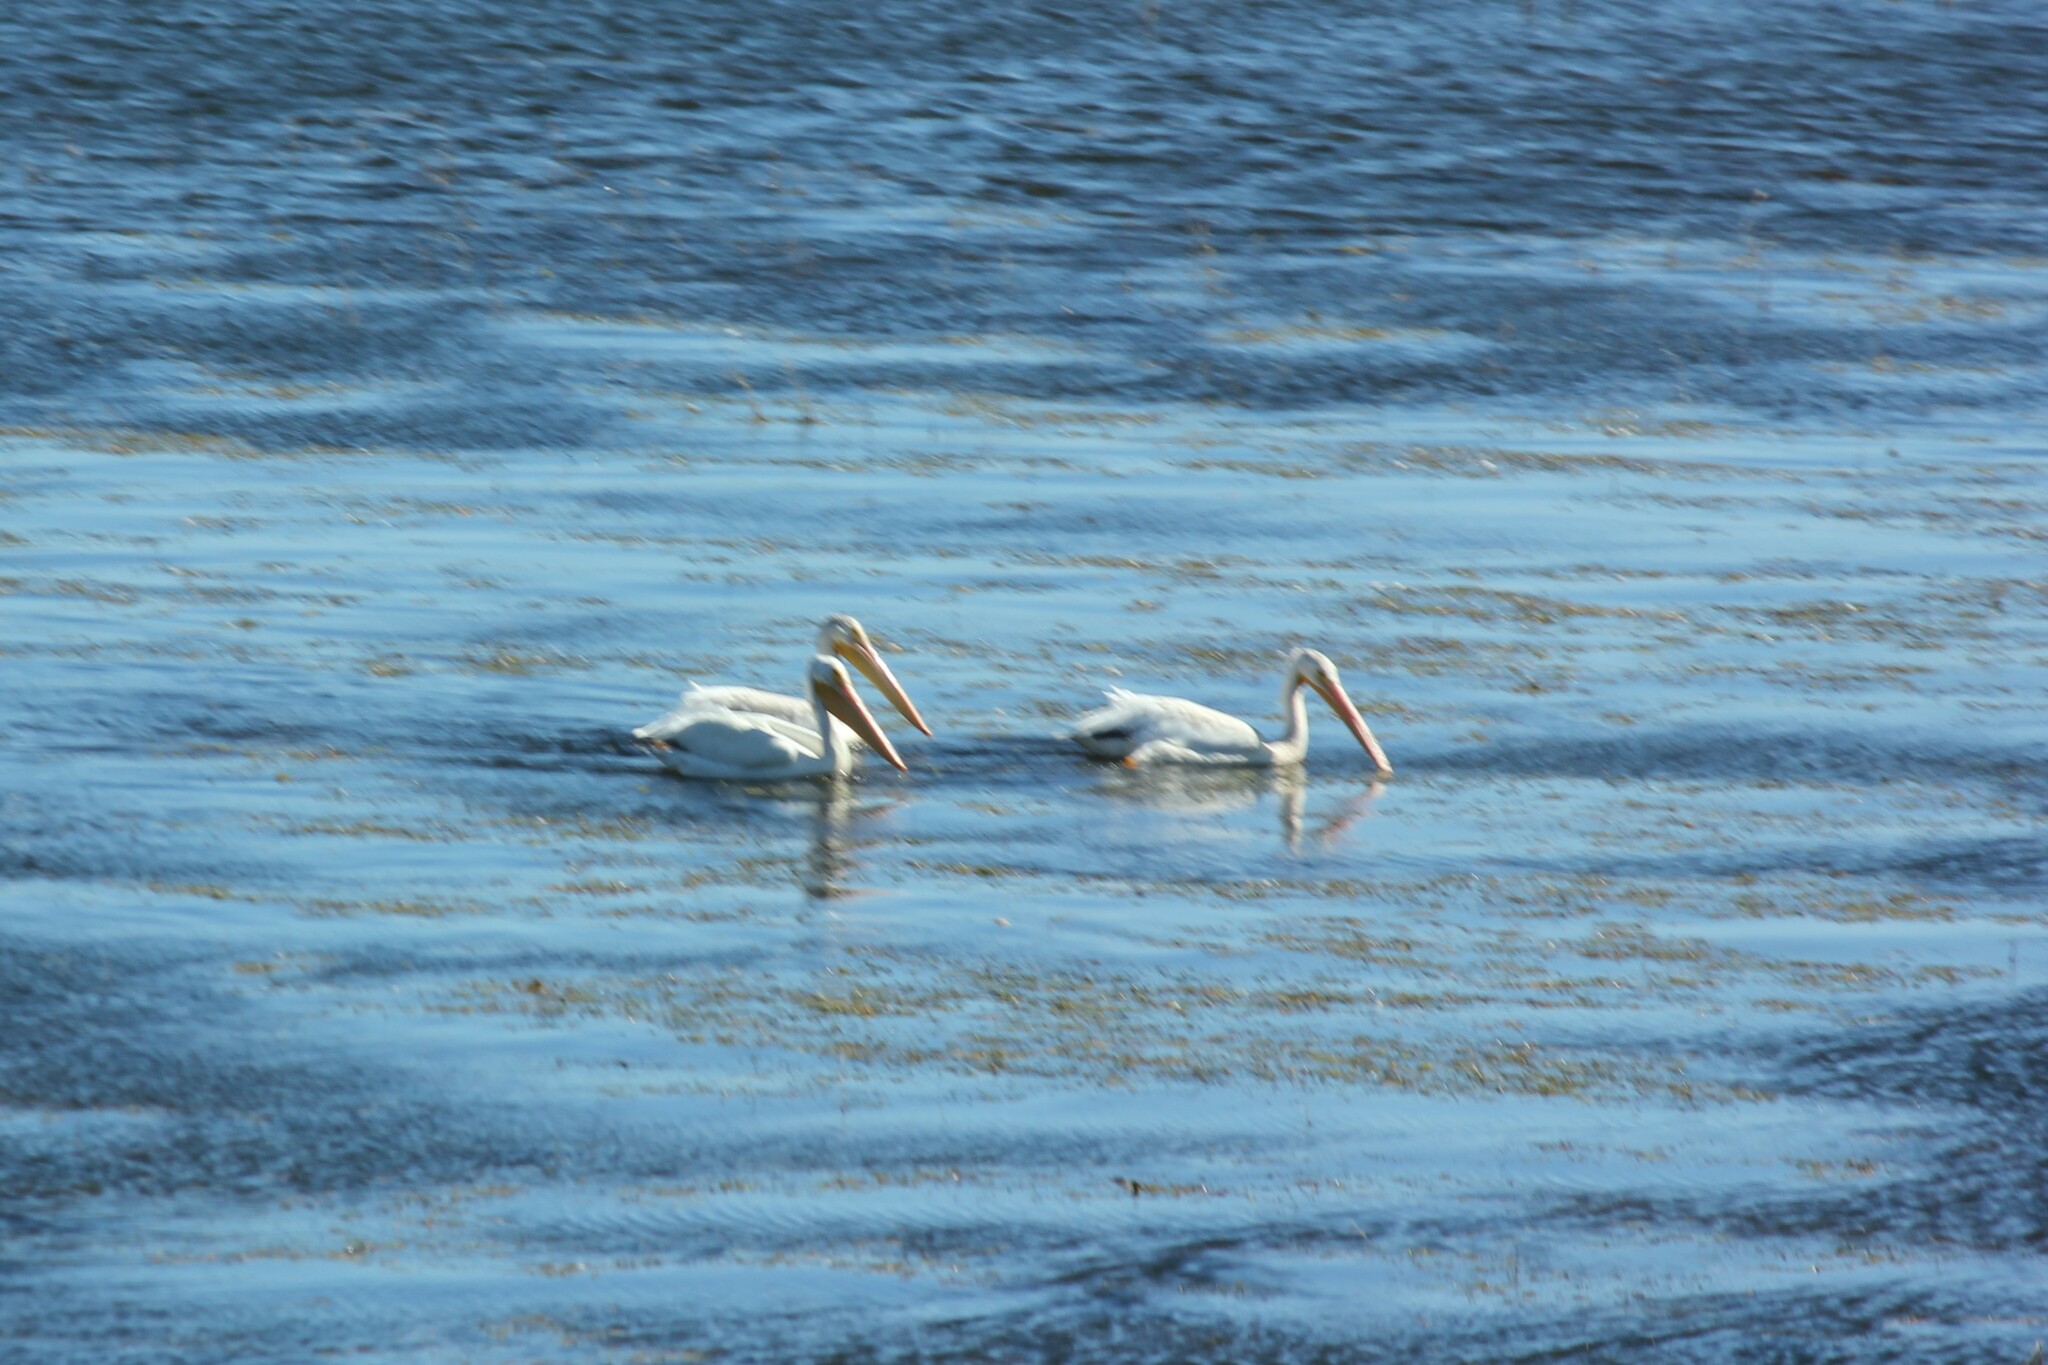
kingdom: Animalia
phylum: Chordata
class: Aves
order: Pelecaniformes
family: Pelecanidae
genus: Pelecanus
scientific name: Pelecanus erythrorhynchos
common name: American white pelican
